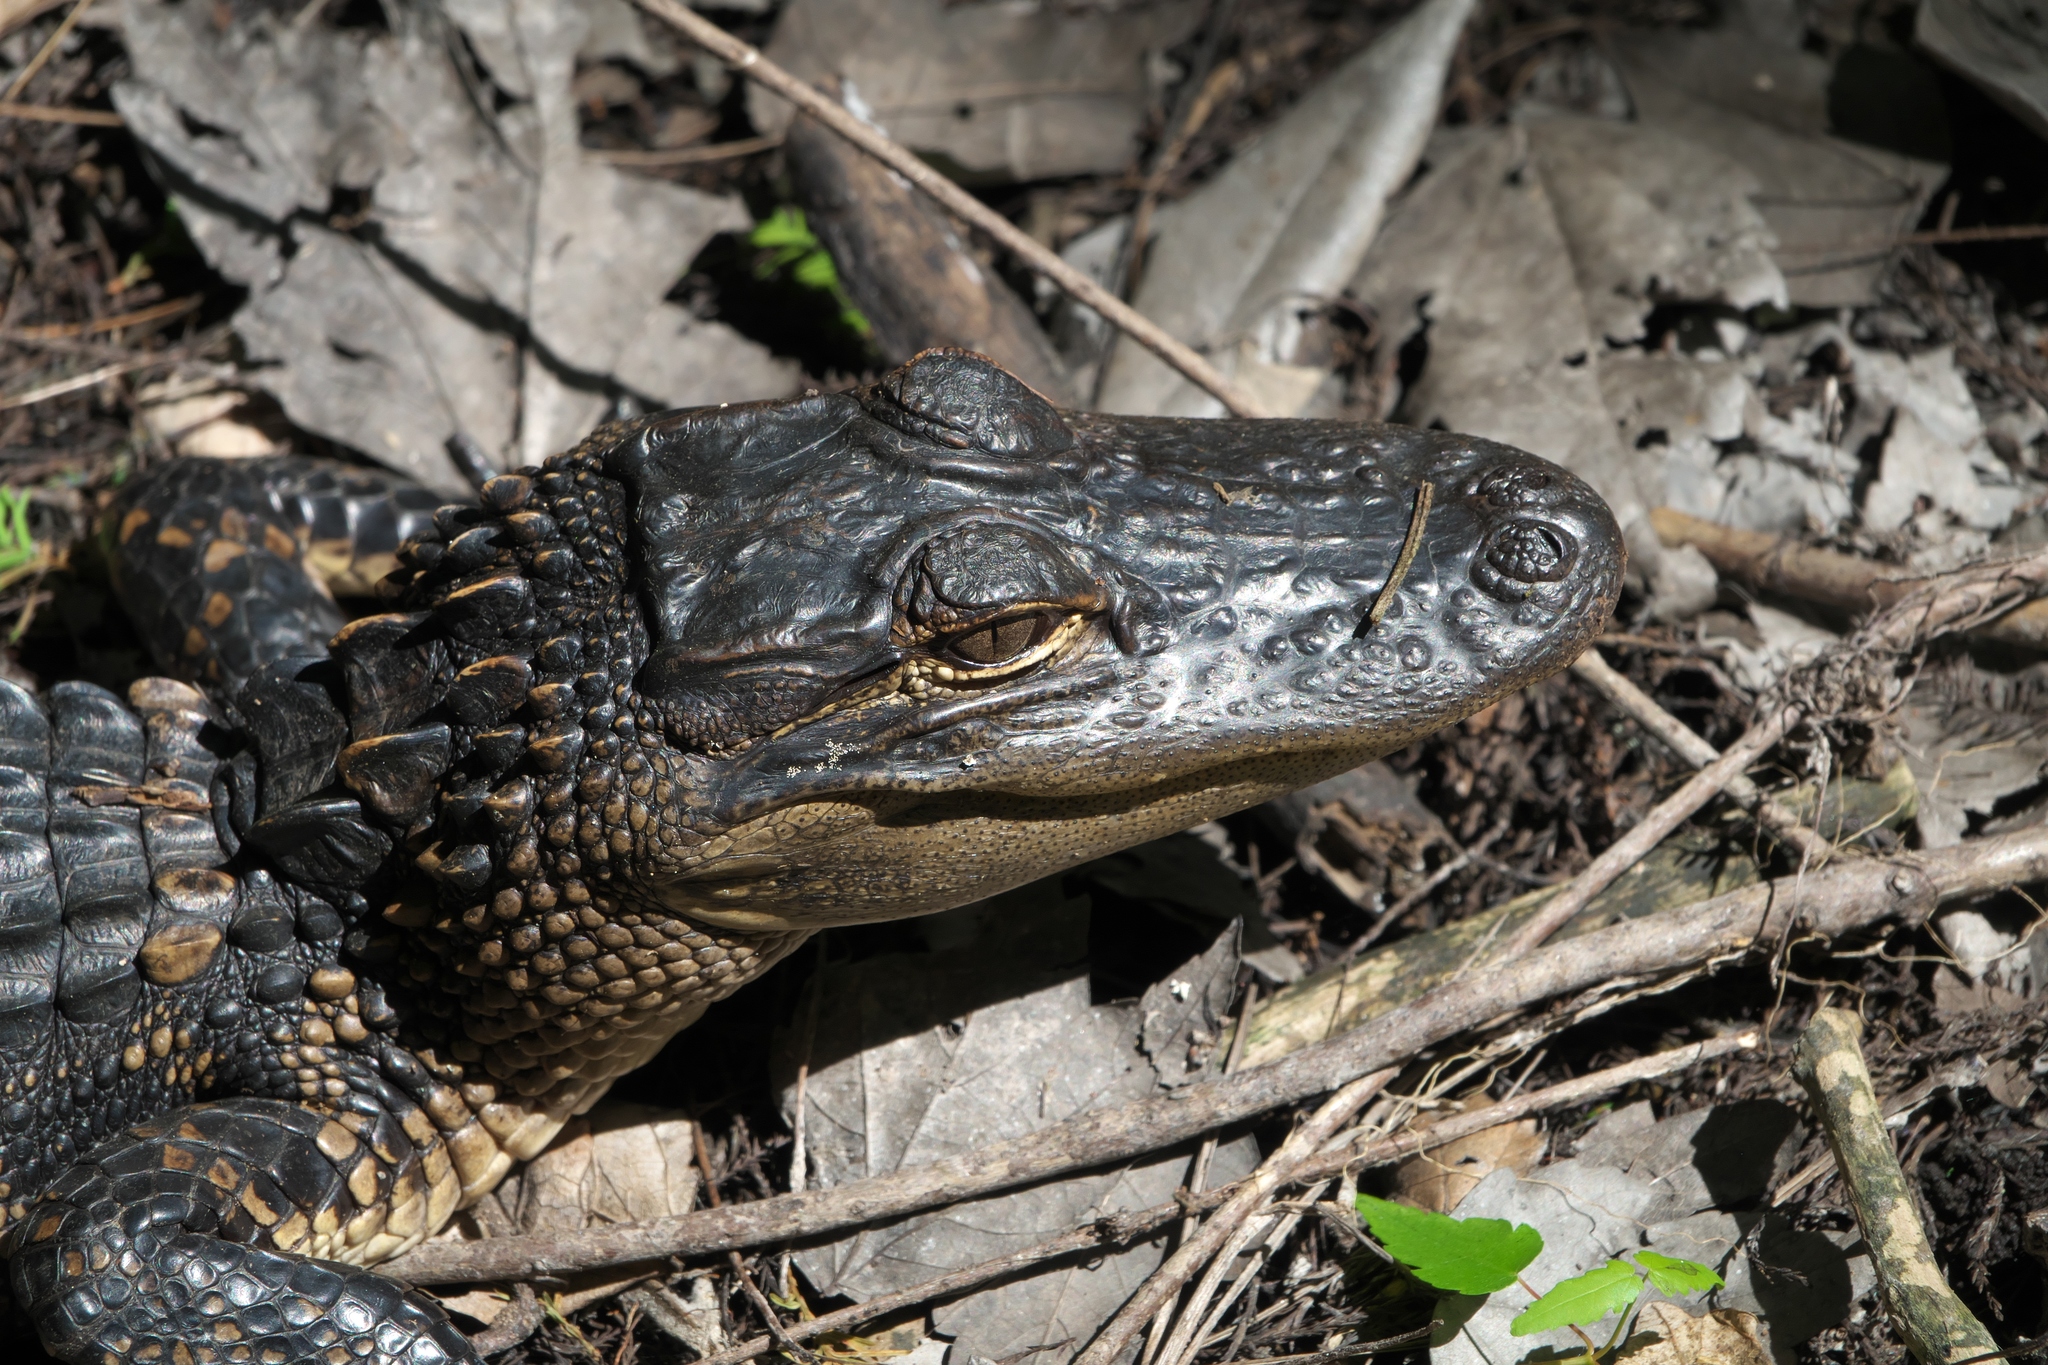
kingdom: Animalia
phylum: Chordata
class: Crocodylia
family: Alligatoridae
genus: Alligator
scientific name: Alligator mississippiensis
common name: American alligator
